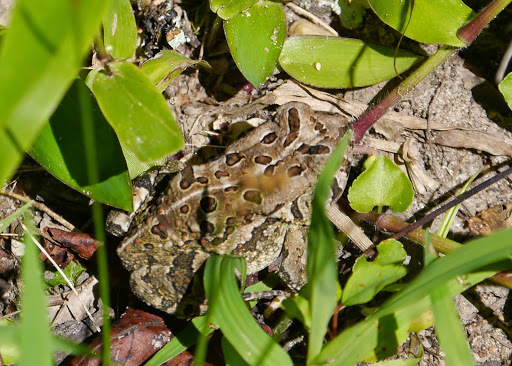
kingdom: Animalia
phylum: Chordata
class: Amphibia
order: Anura
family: Bufonidae
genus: Anaxyrus
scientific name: Anaxyrus fowleri
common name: Fowler's toad
